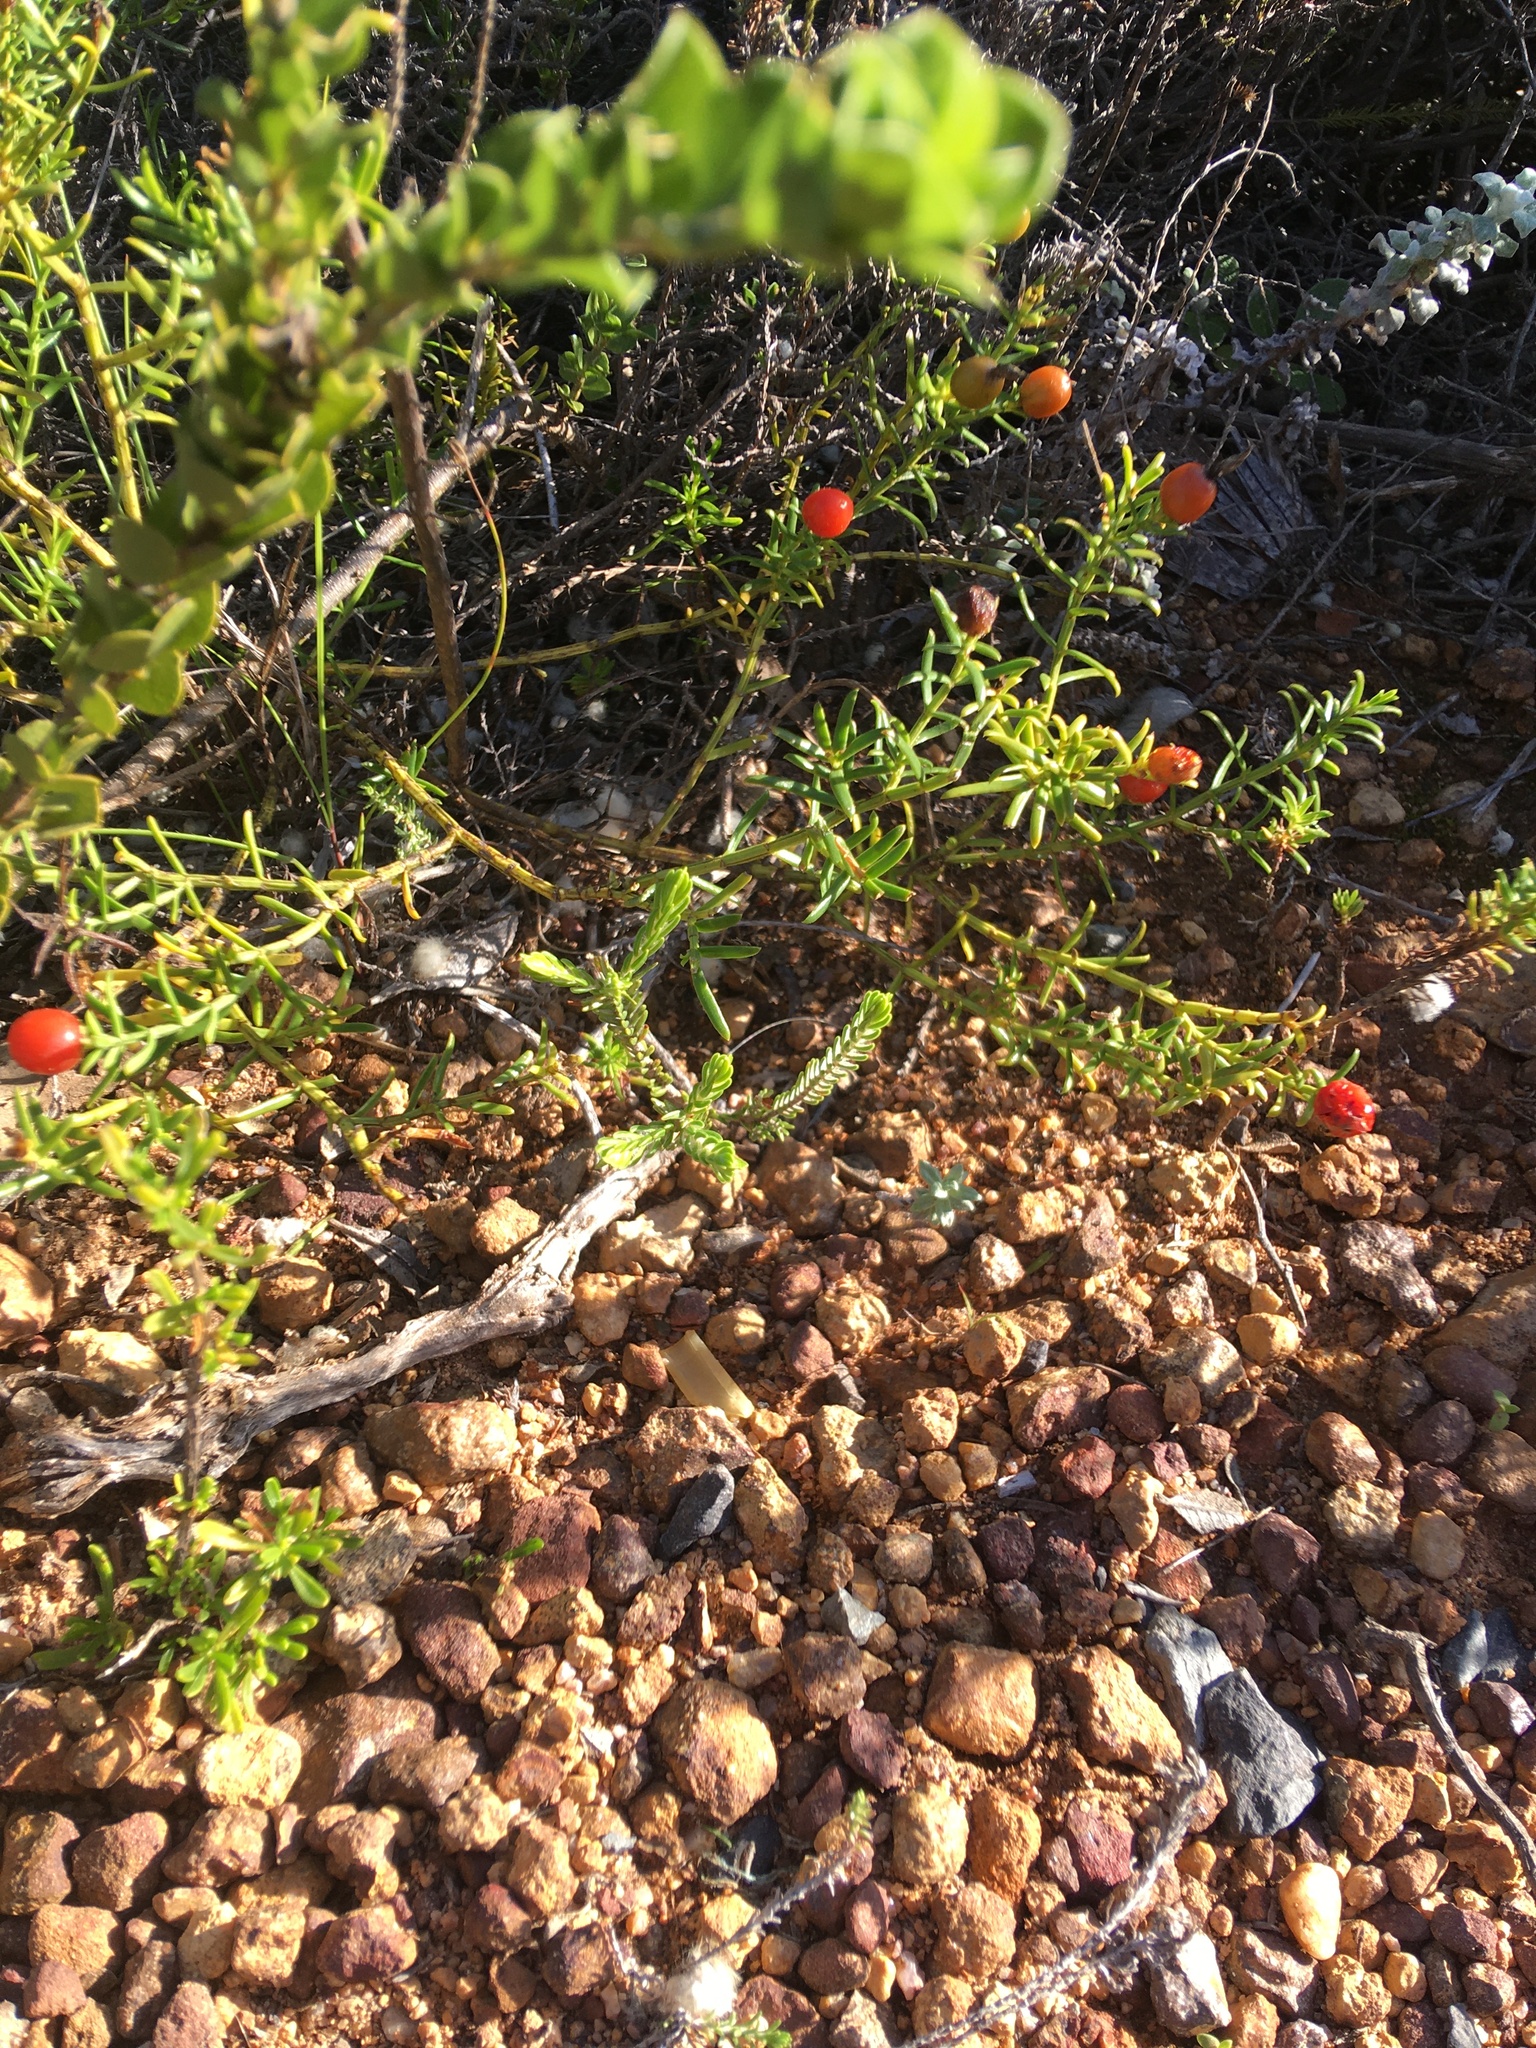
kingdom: Plantae
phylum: Tracheophyta
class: Magnoliopsida
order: Gentianales
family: Gentianaceae
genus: Chironia
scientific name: Chironia baccifera
